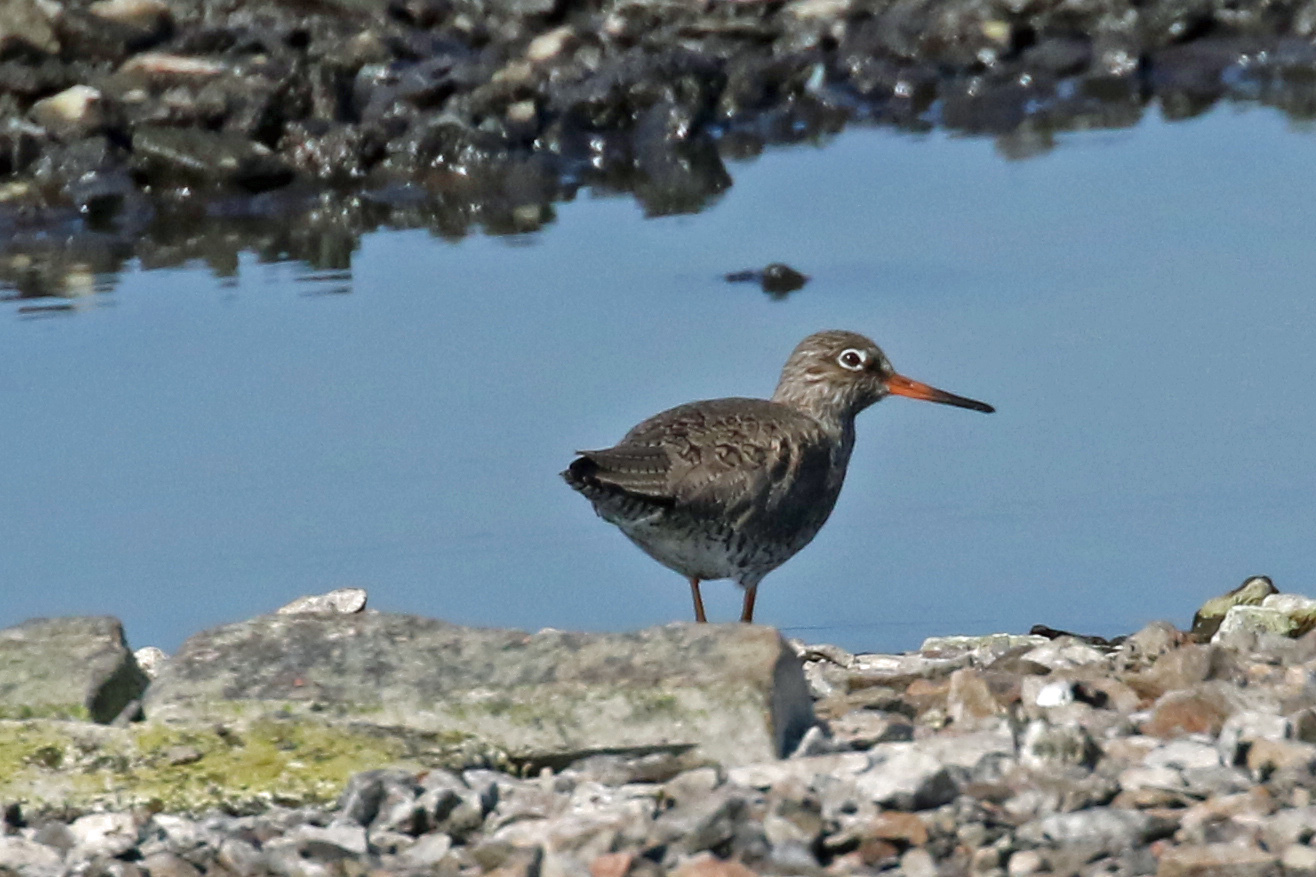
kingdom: Animalia
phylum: Chordata
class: Aves
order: Charadriiformes
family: Scolopacidae
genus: Tringa
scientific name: Tringa totanus
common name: Common redshank
